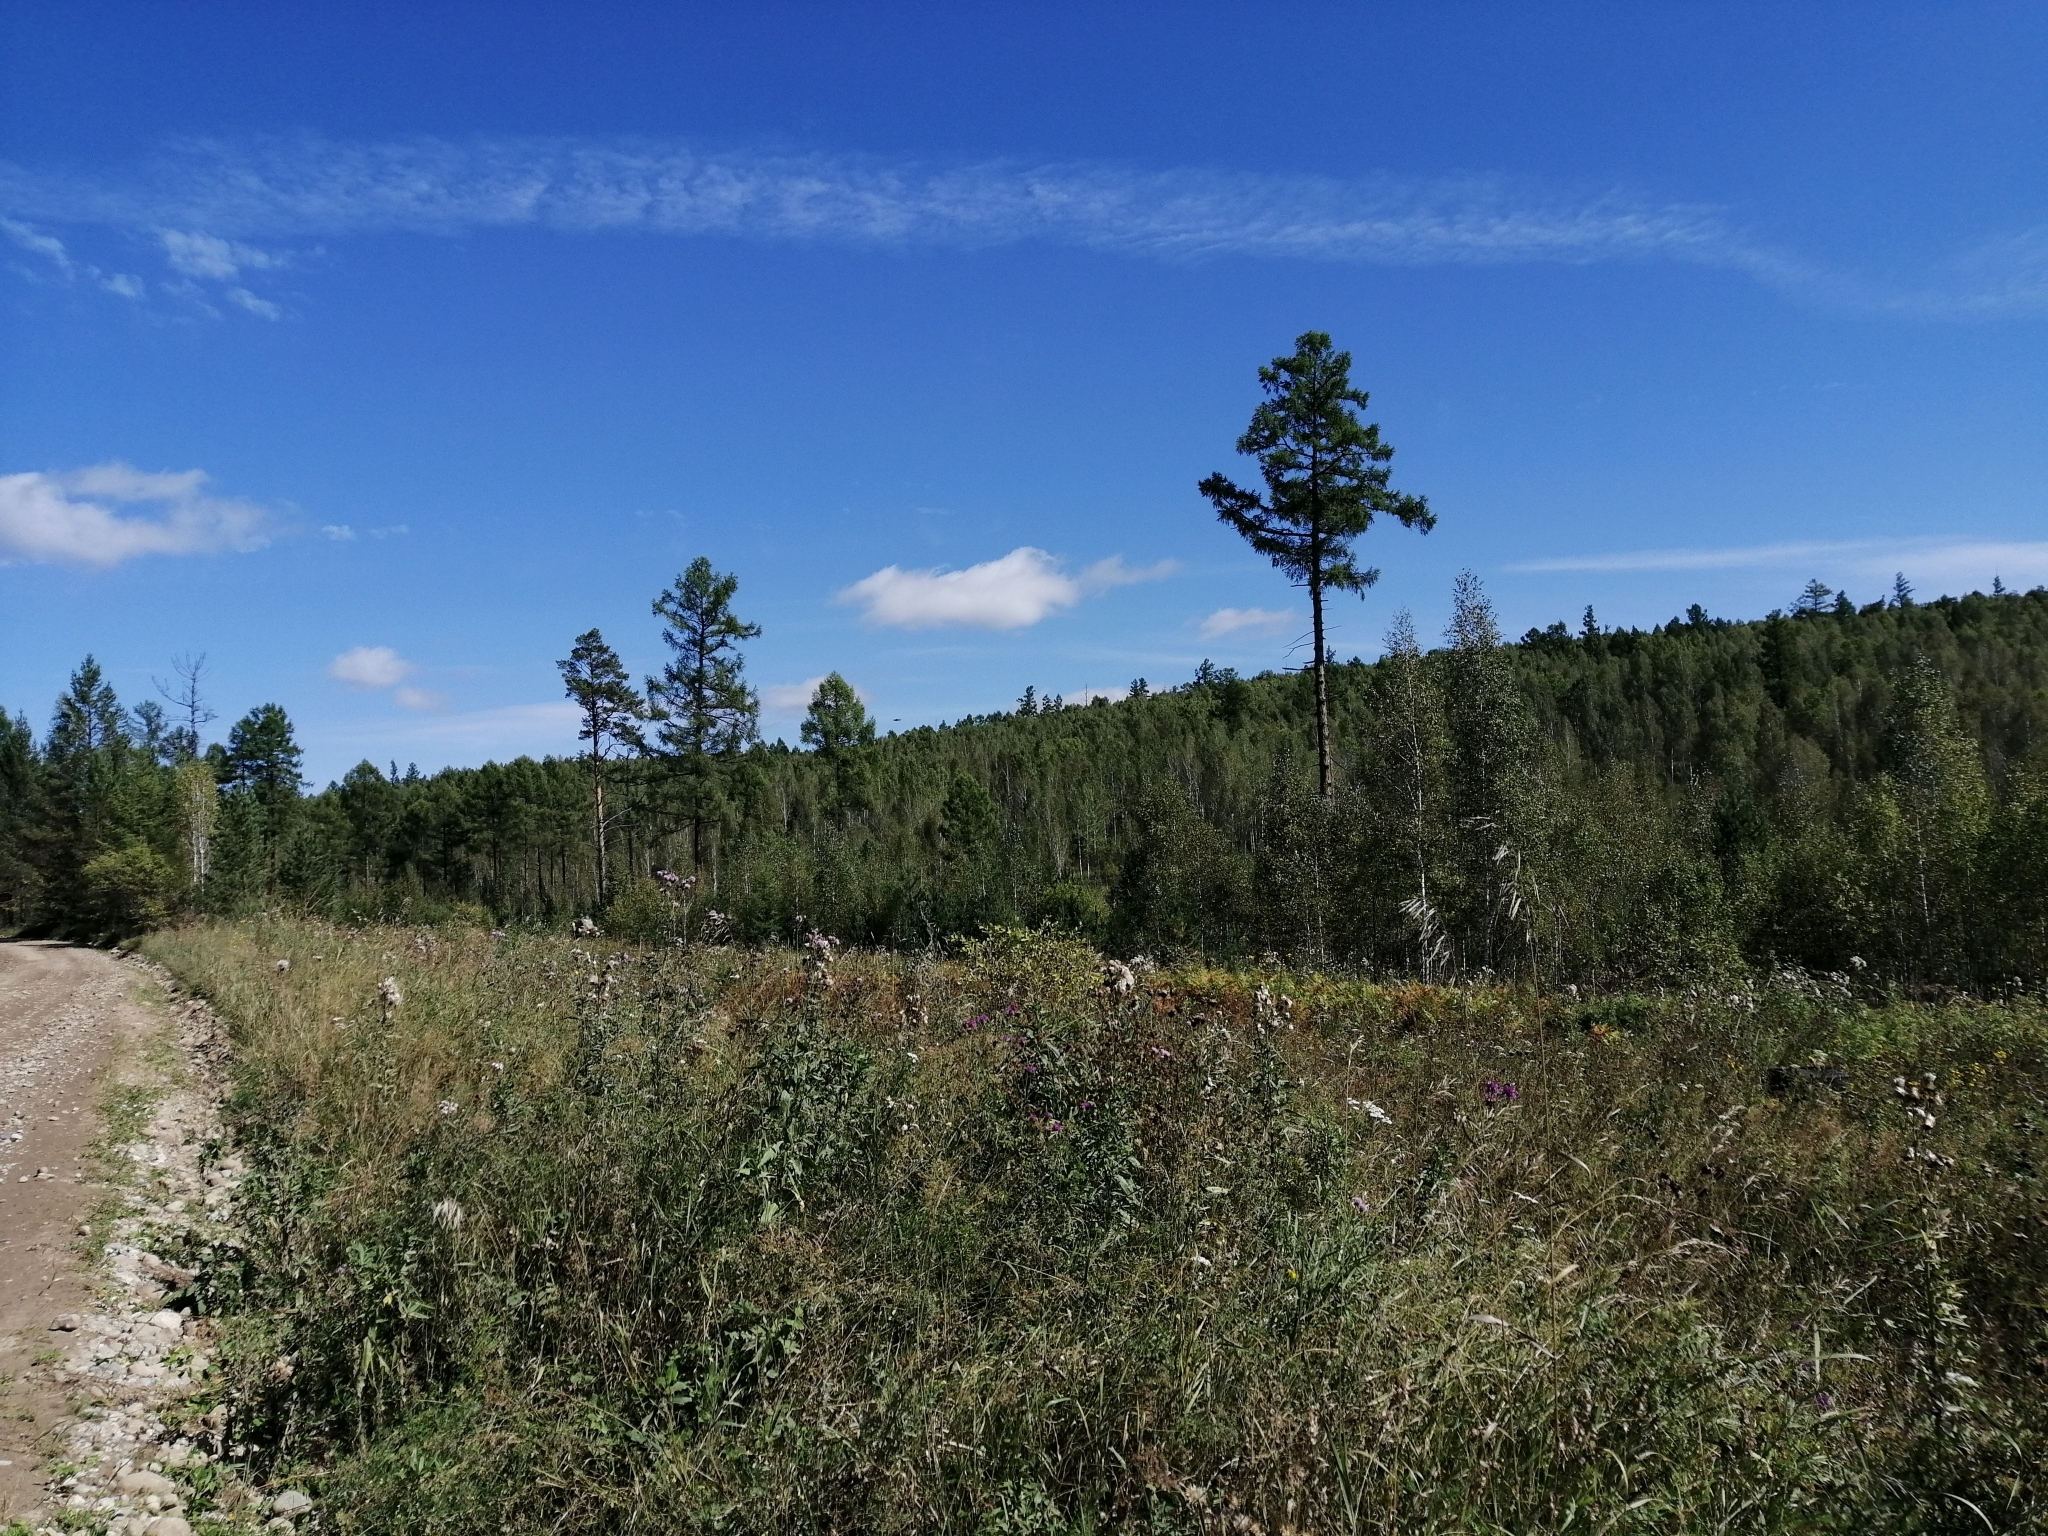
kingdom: Plantae
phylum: Tracheophyta
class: Pinopsida
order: Pinales
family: Pinaceae
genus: Pinus
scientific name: Pinus sibirica
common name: Siberian pine
